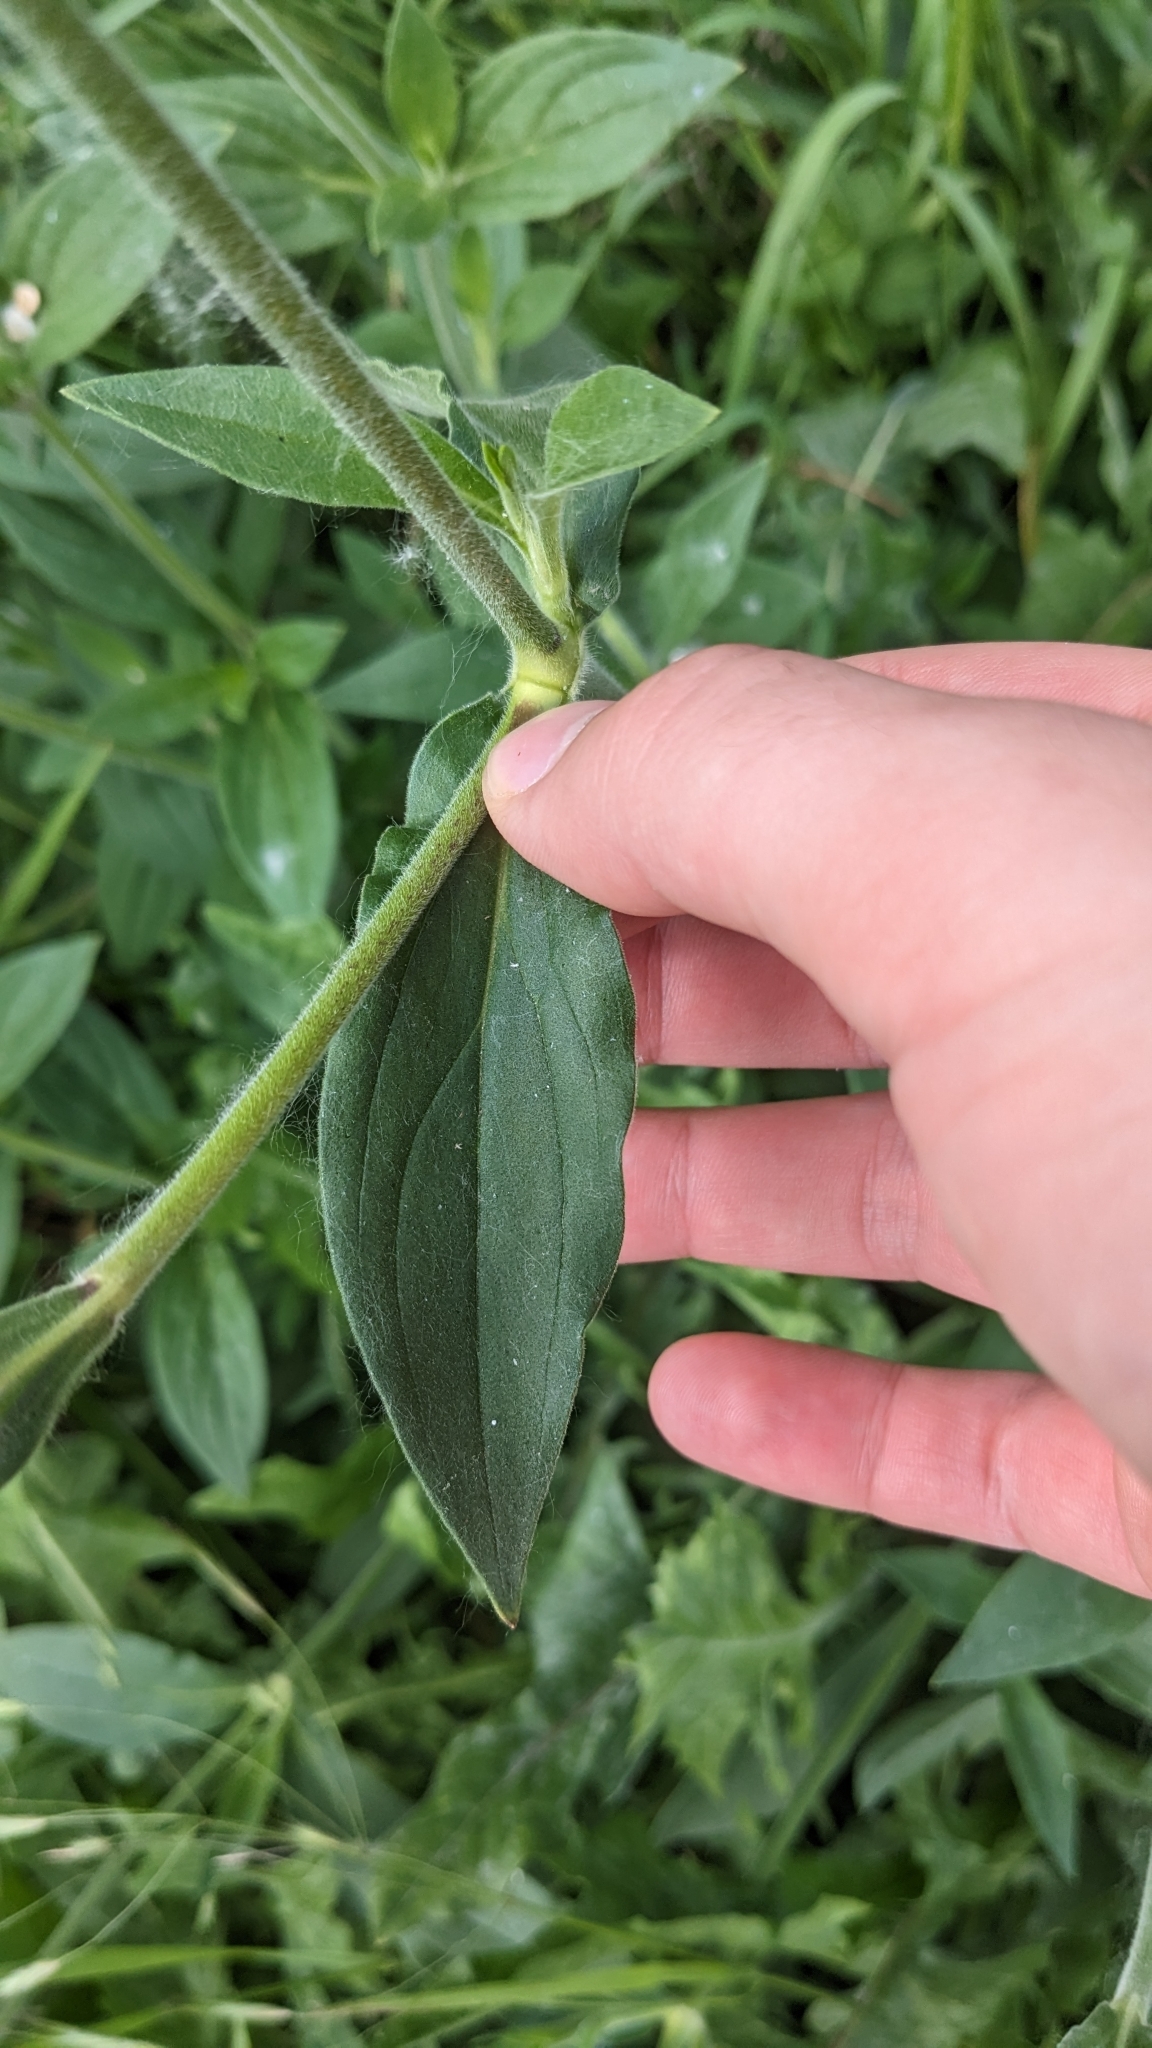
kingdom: Plantae
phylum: Tracheophyta
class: Magnoliopsida
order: Caryophyllales
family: Caryophyllaceae
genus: Silene
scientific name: Silene latifolia
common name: White campion
